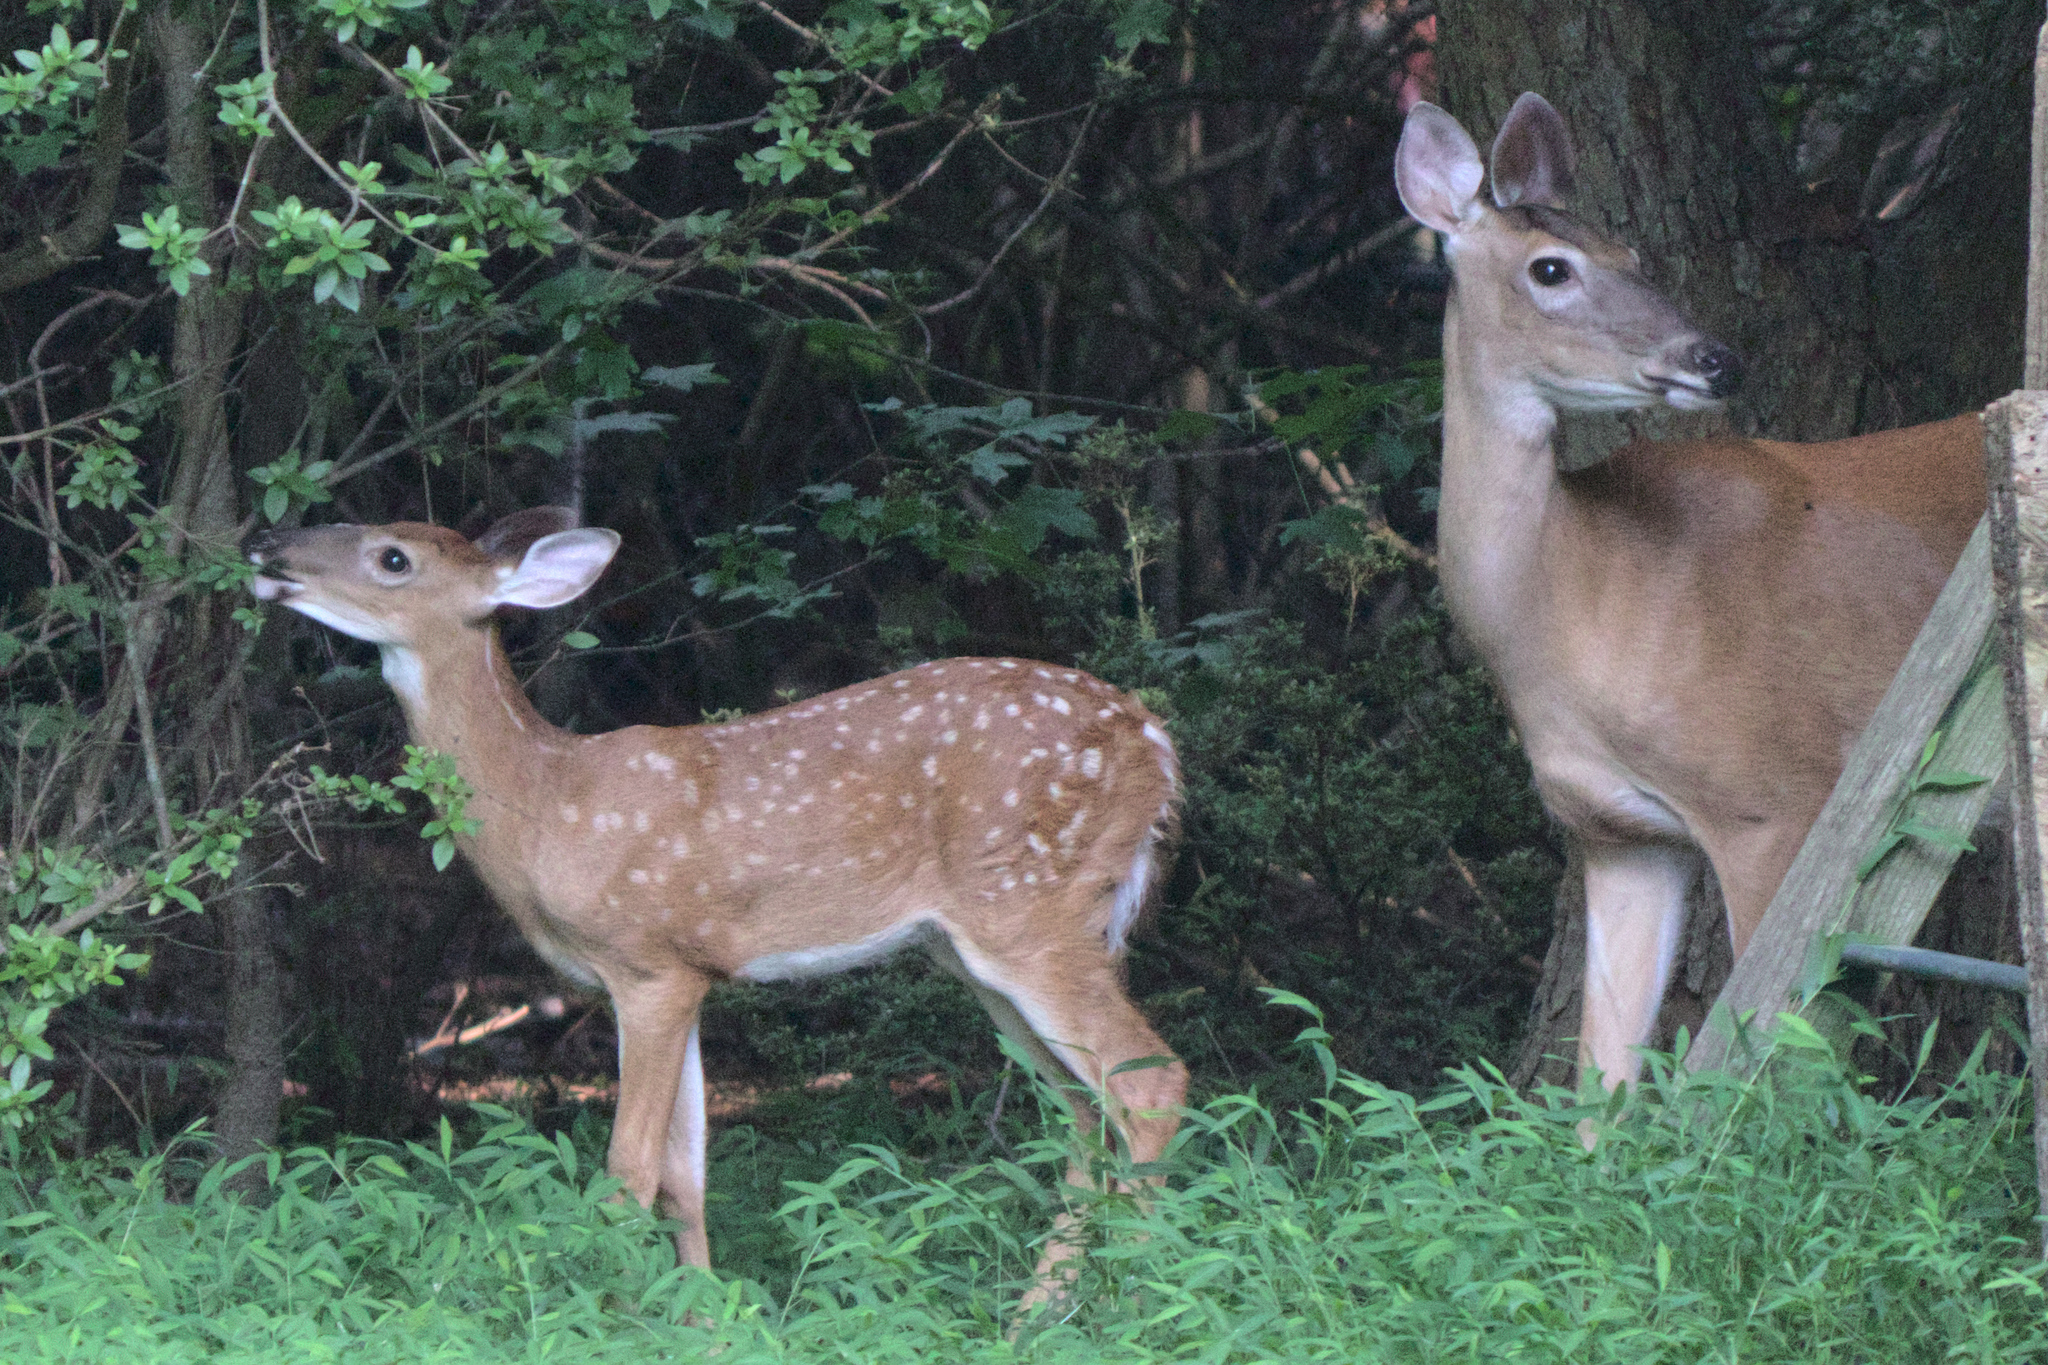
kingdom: Animalia
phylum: Chordata
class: Mammalia
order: Artiodactyla
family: Cervidae
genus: Odocoileus
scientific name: Odocoileus virginianus
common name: White-tailed deer
